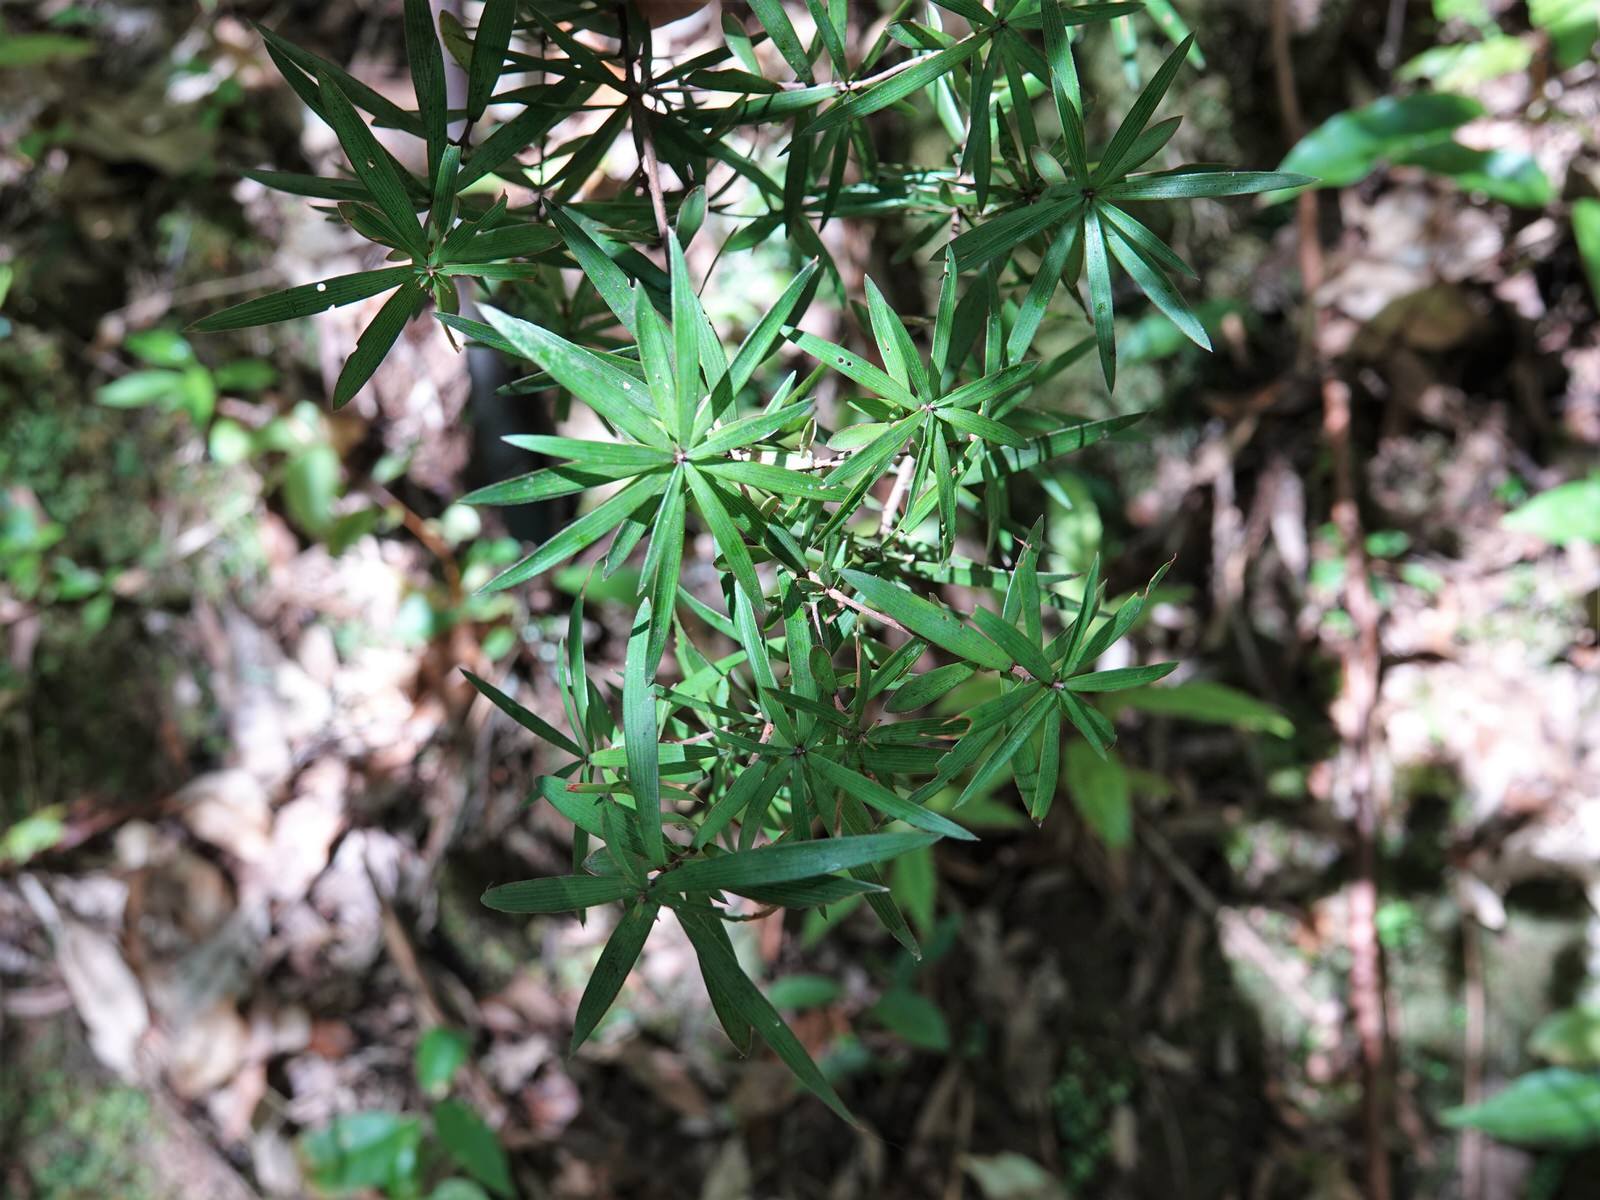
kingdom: Plantae
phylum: Tracheophyta
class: Magnoliopsida
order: Ericales
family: Ericaceae
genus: Leucopogon
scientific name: Leucopogon fasciculatus
